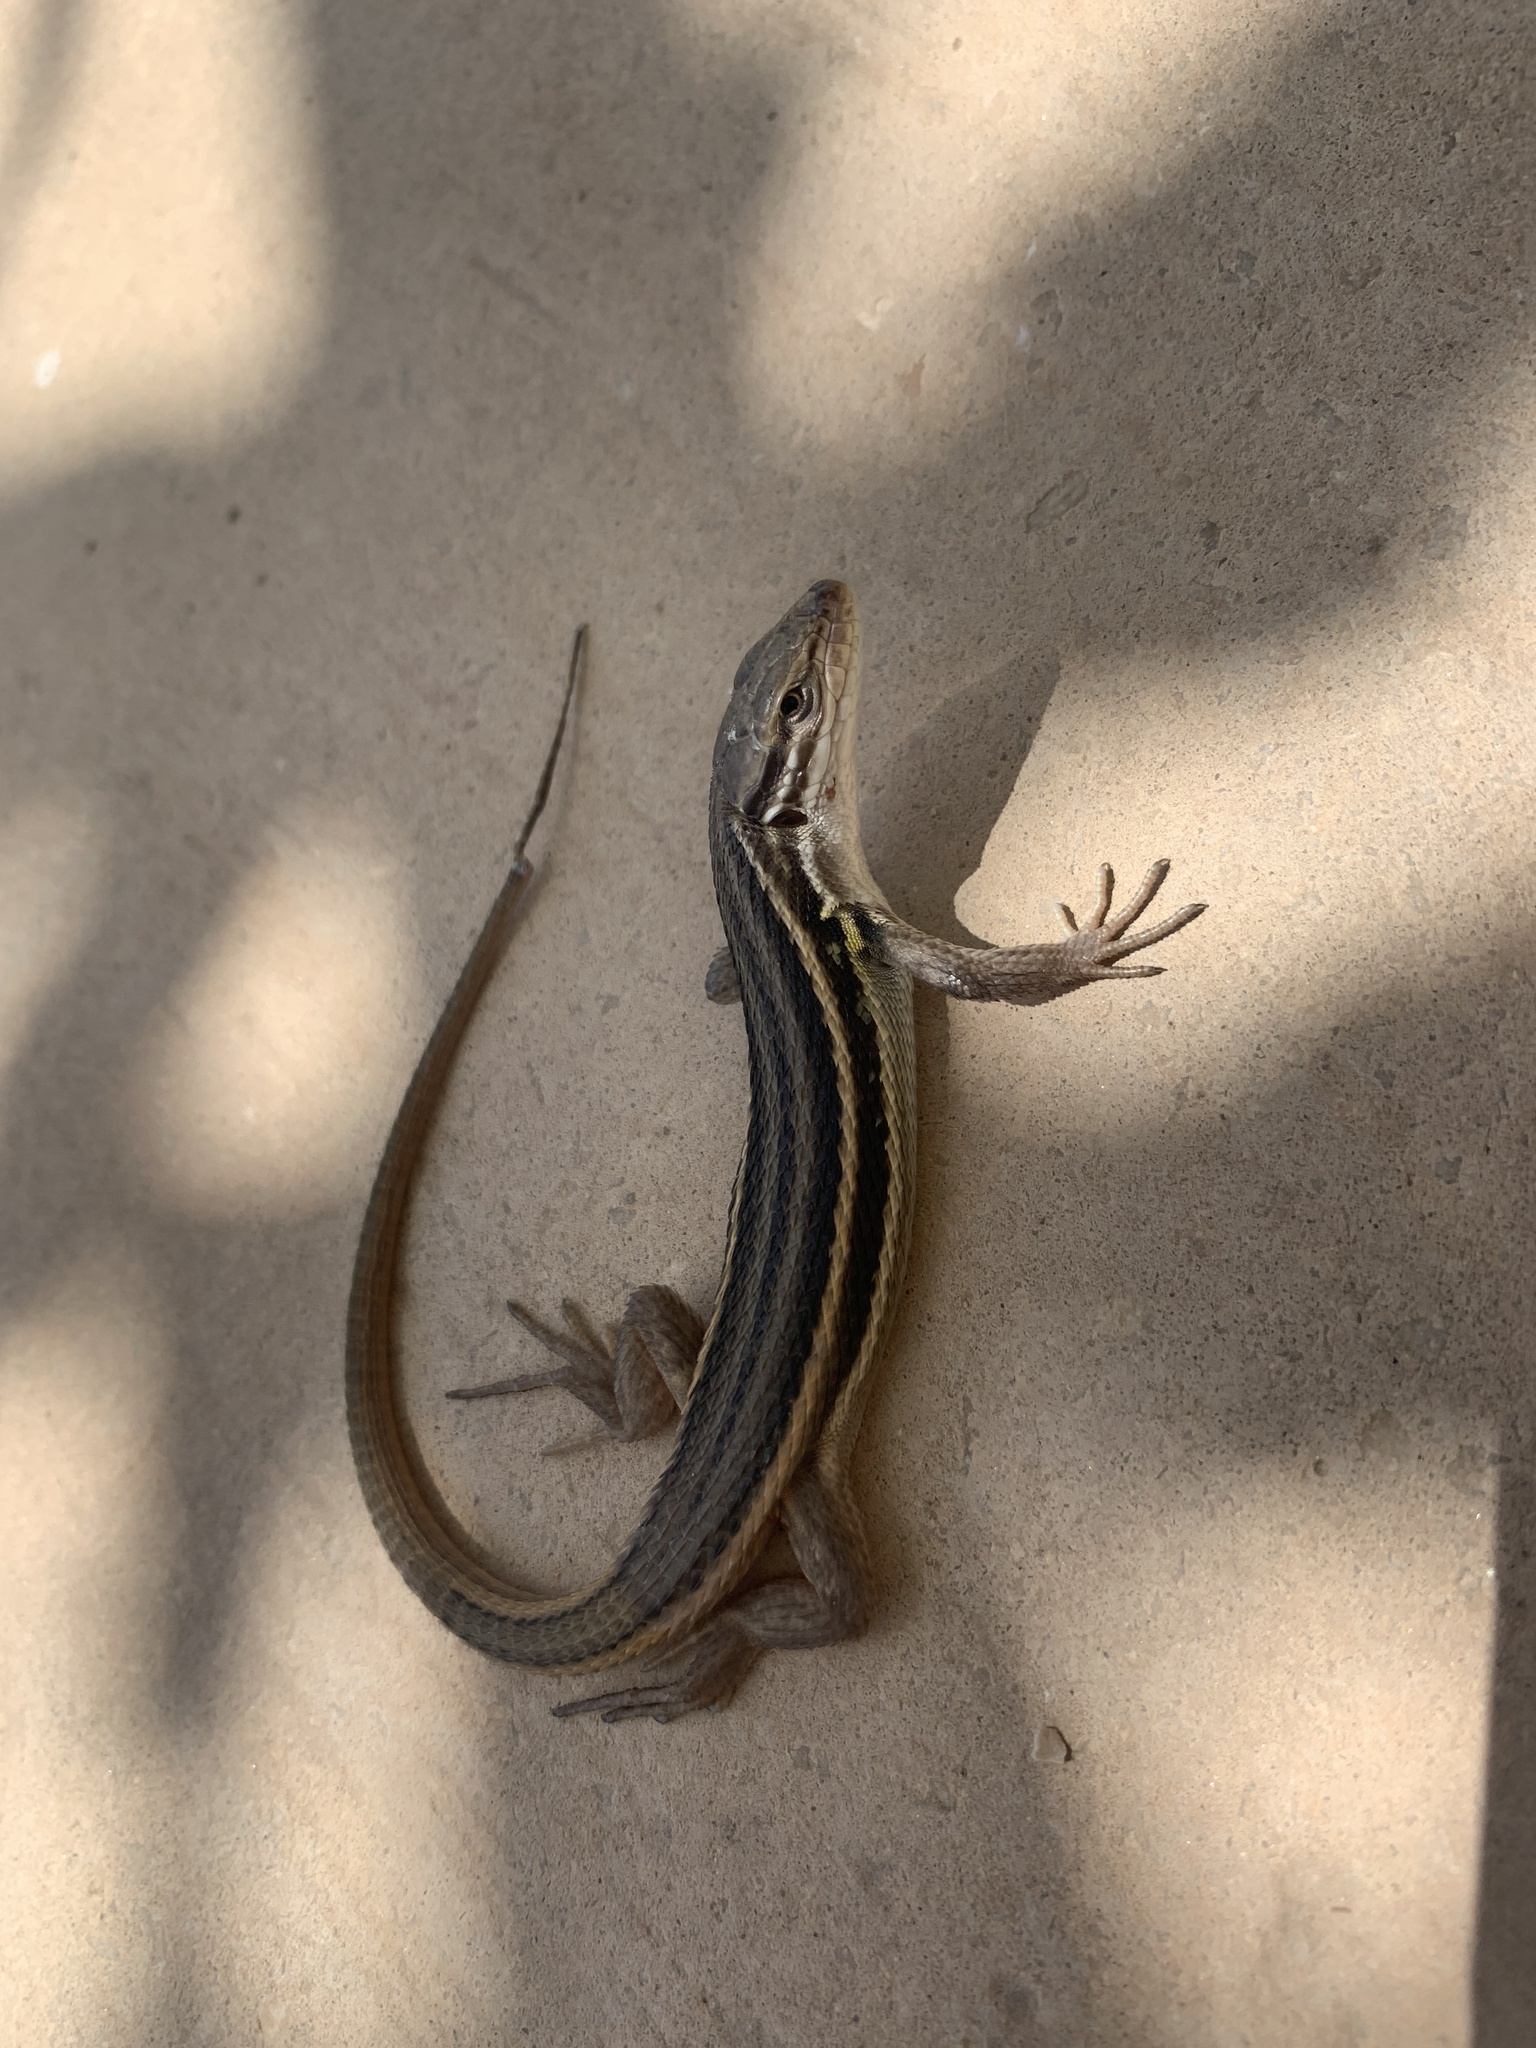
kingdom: Animalia
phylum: Chordata
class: Squamata
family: Lacertidae
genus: Psammodromus
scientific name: Psammodromus algirus
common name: Algerian psammodromus
